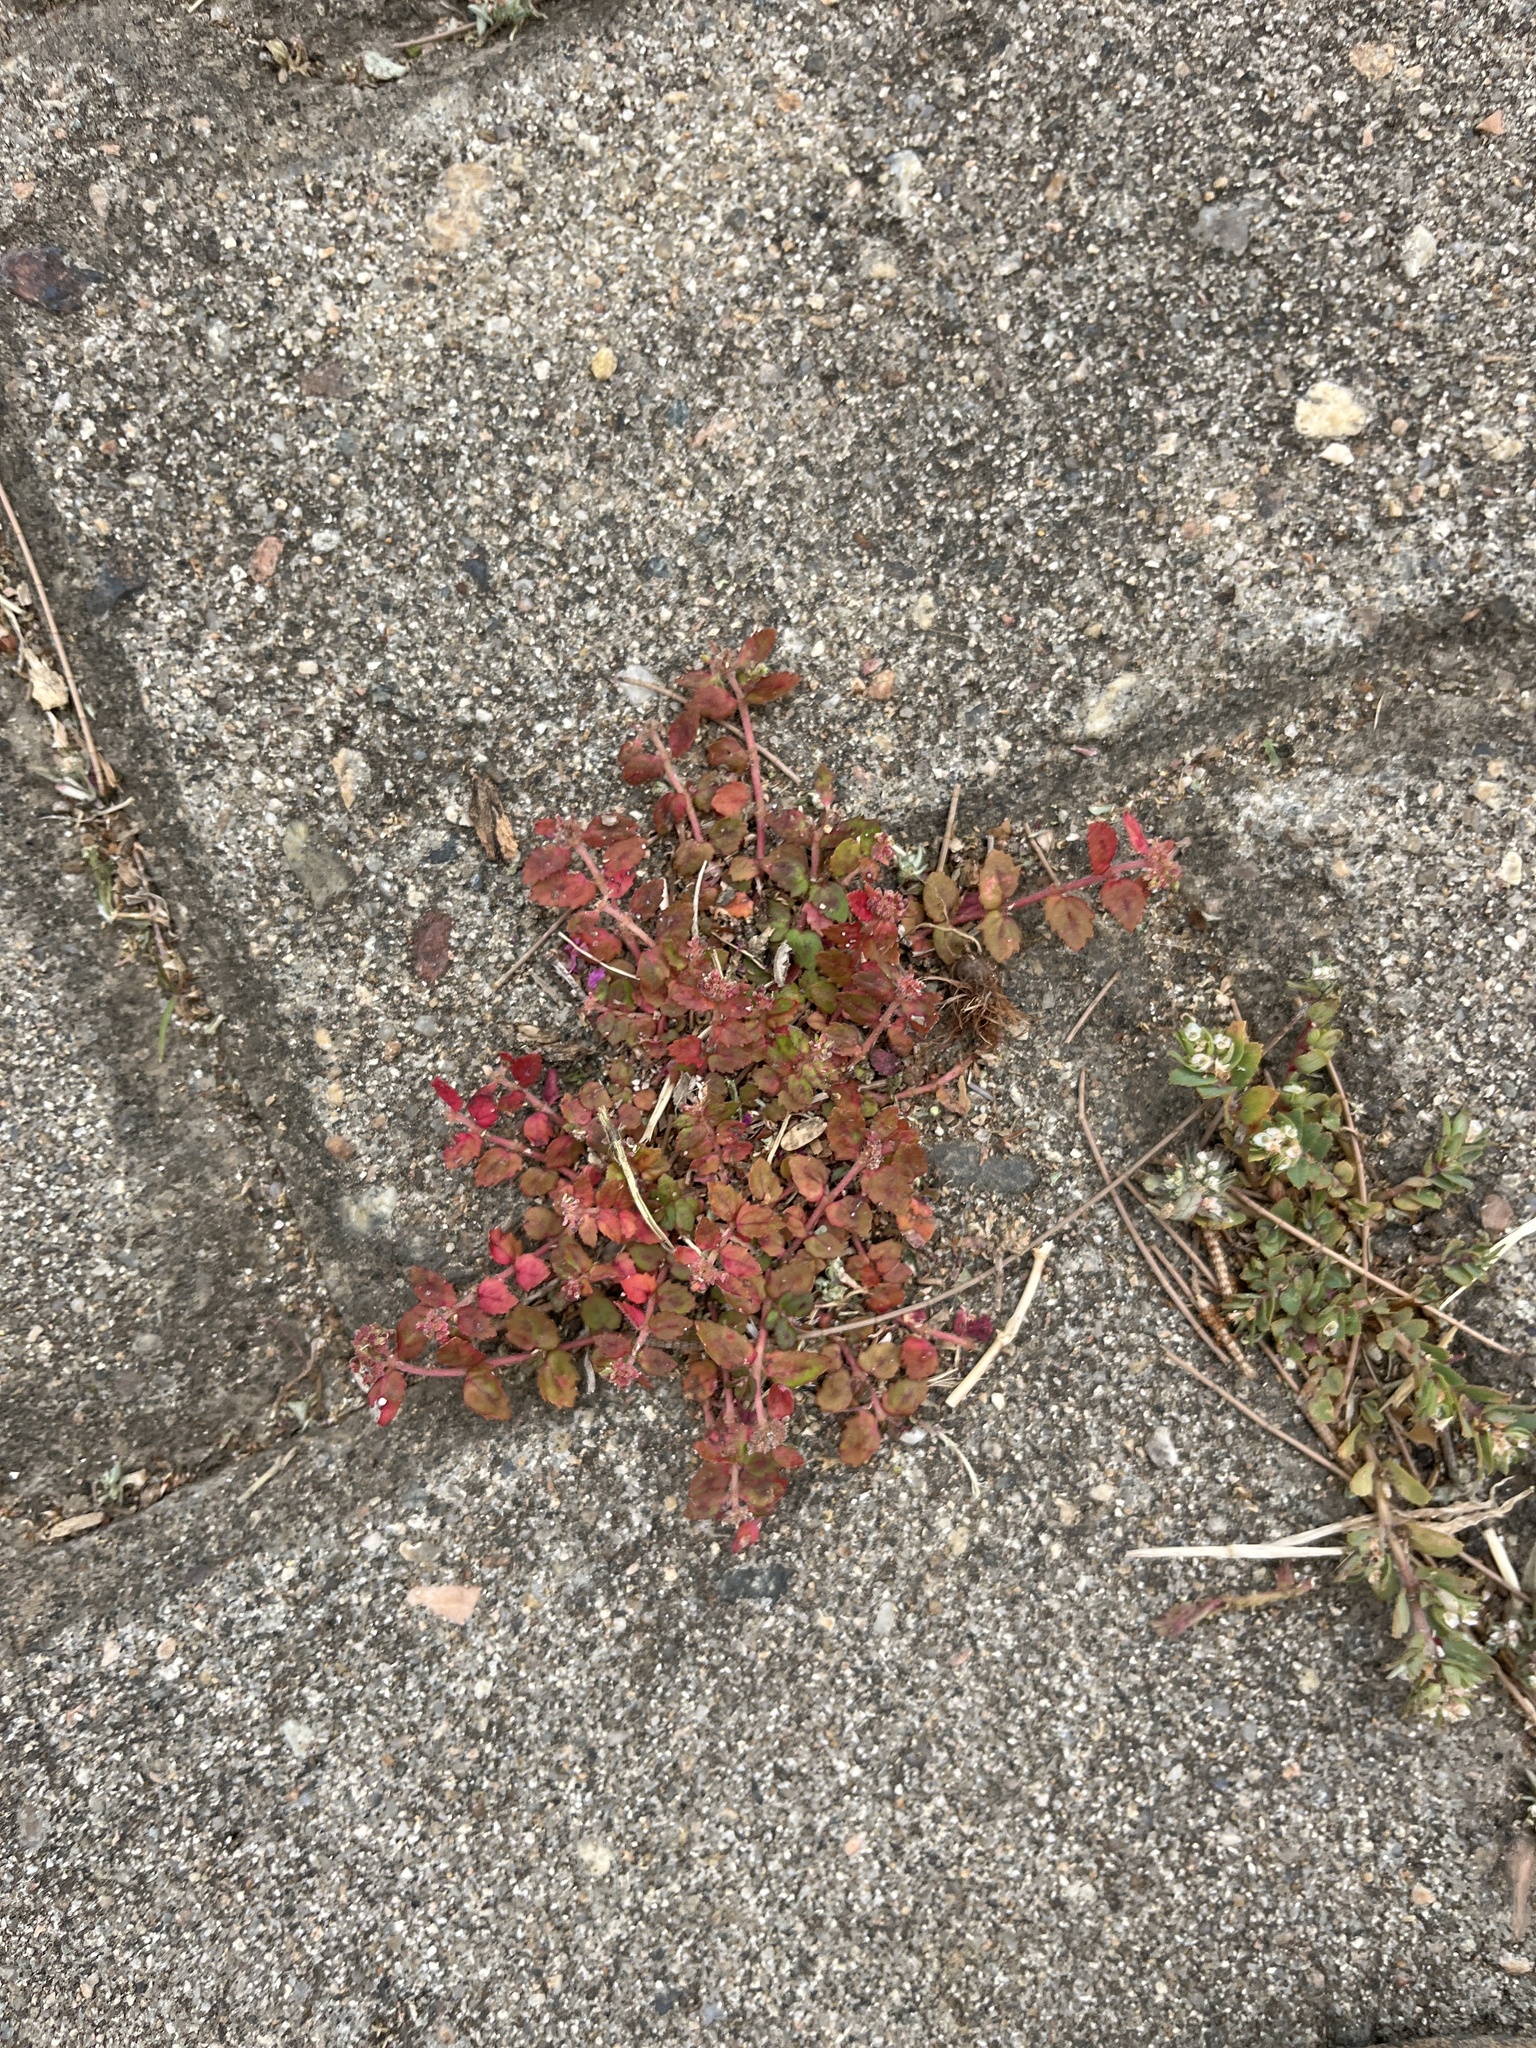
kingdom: Plantae
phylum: Tracheophyta
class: Magnoliopsida
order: Malpighiales
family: Euphorbiaceae
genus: Euphorbia
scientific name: Euphorbia ophthalmica
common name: Florida hammock sandmat
